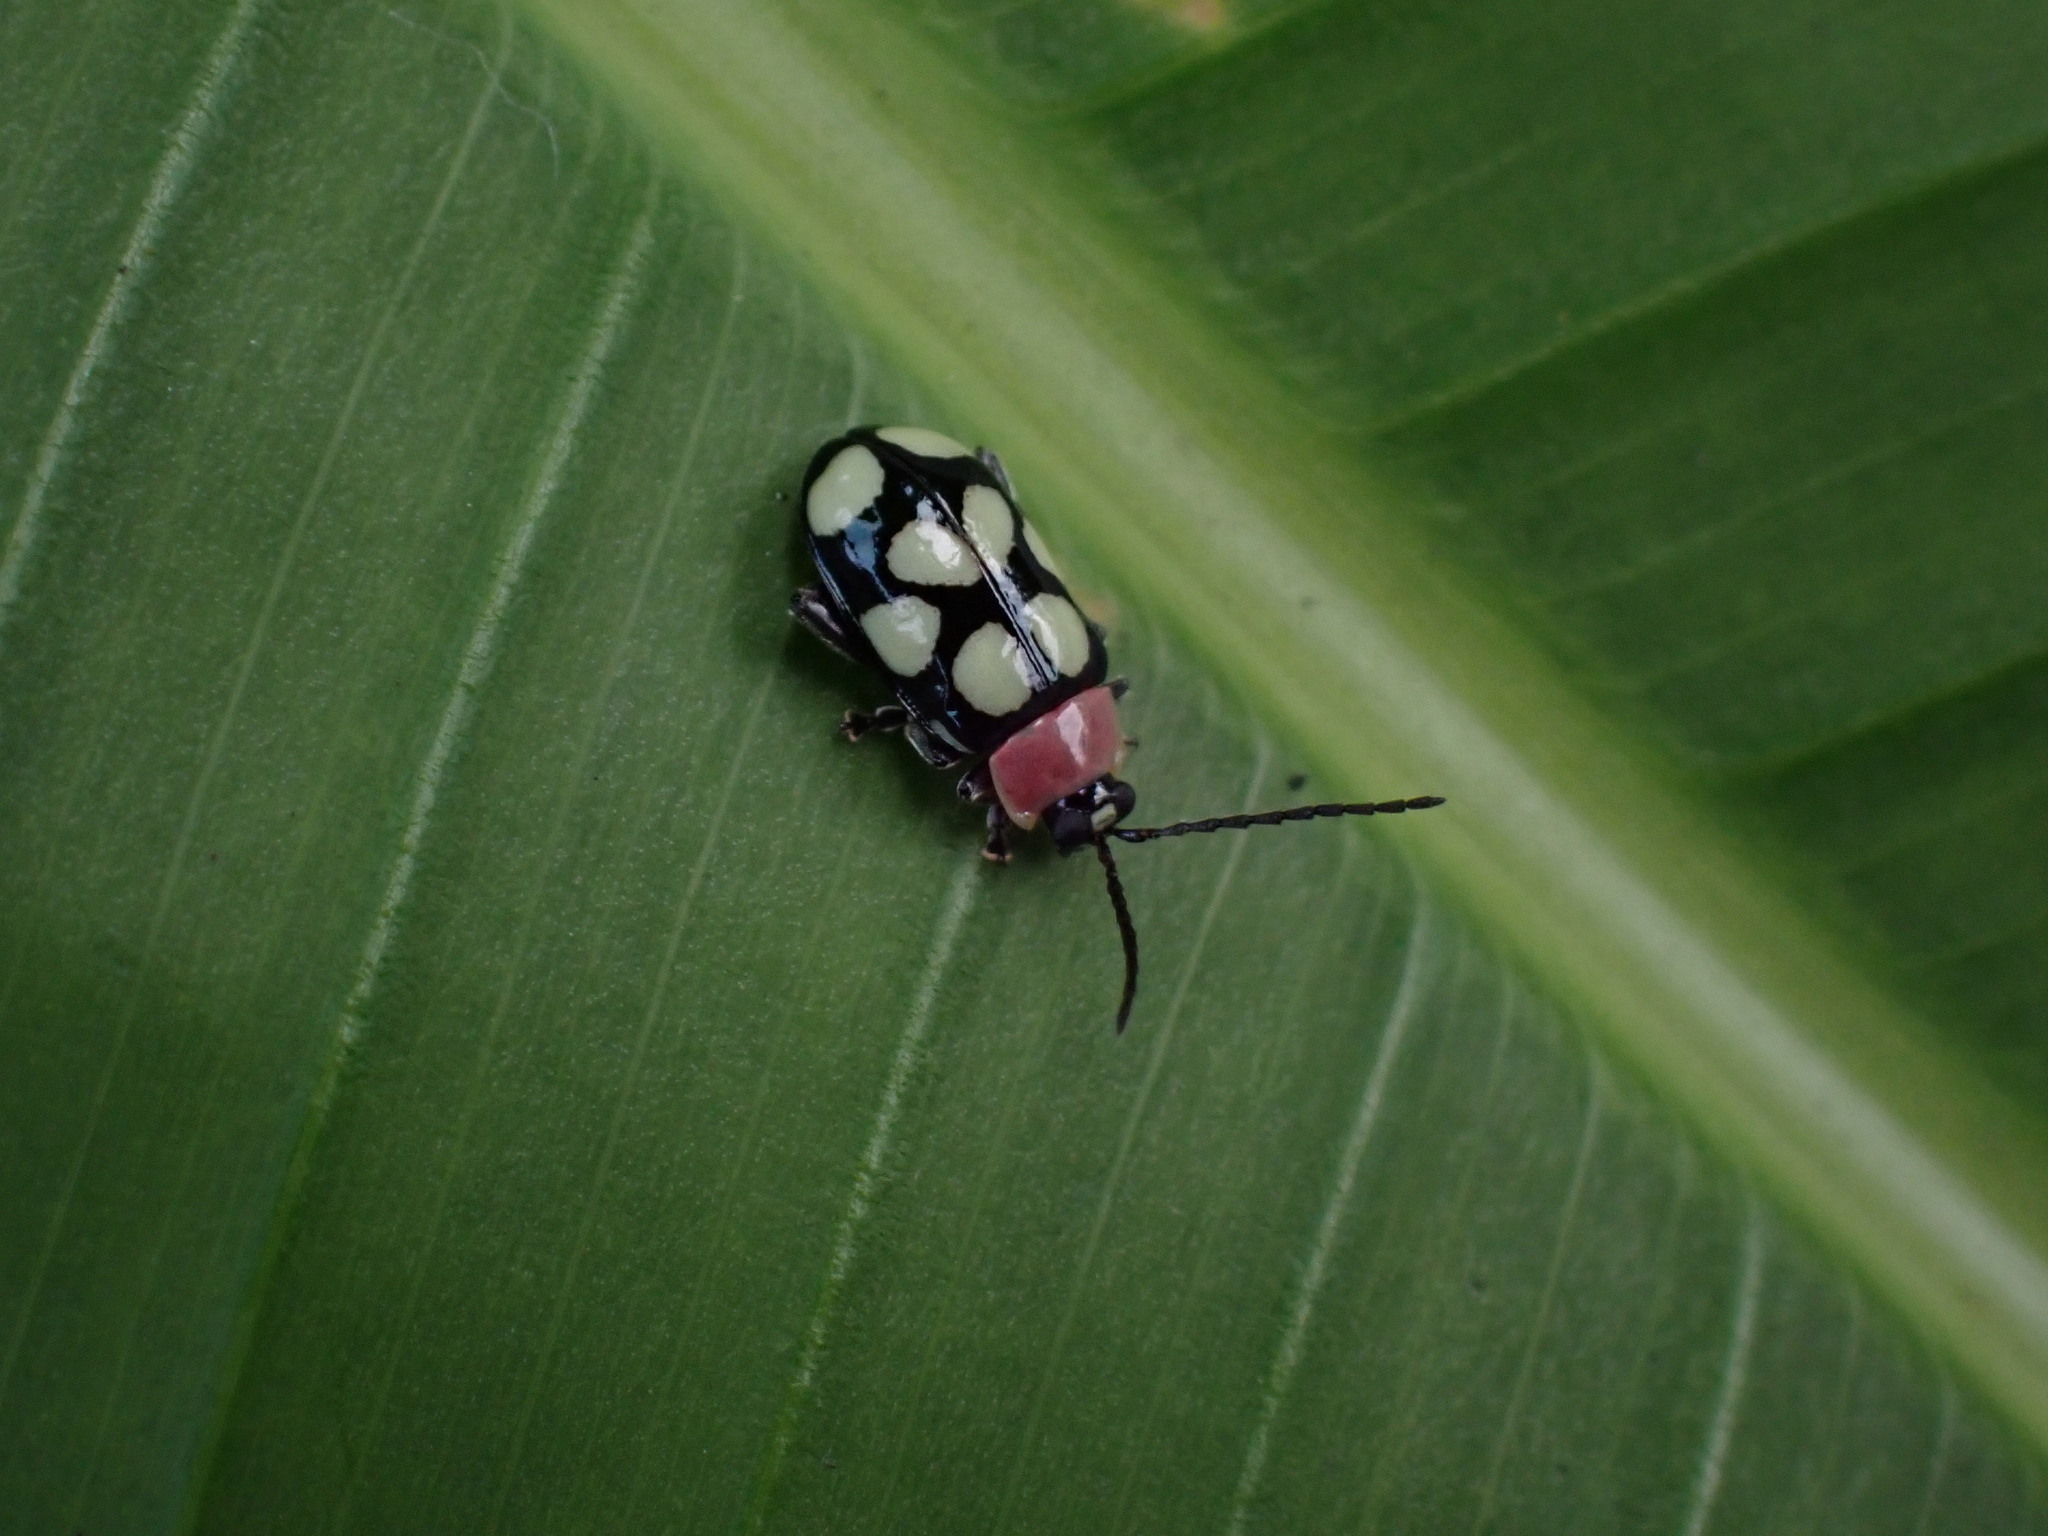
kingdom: Animalia
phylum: Arthropoda
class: Insecta
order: Coleoptera
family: Chrysomelidae
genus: Omophoita
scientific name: Omophoita aequinoctialis
